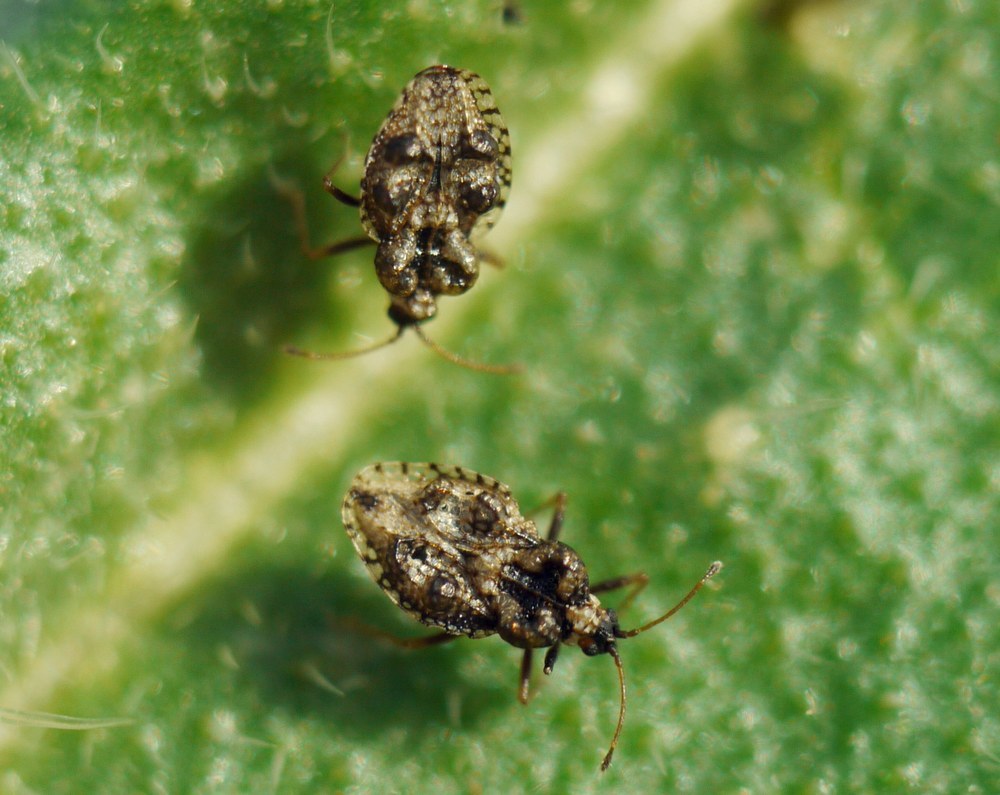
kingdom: Animalia
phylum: Arthropoda
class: Insecta
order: Hemiptera
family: Tingidae
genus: Dictyla
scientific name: Dictyla rotundata
